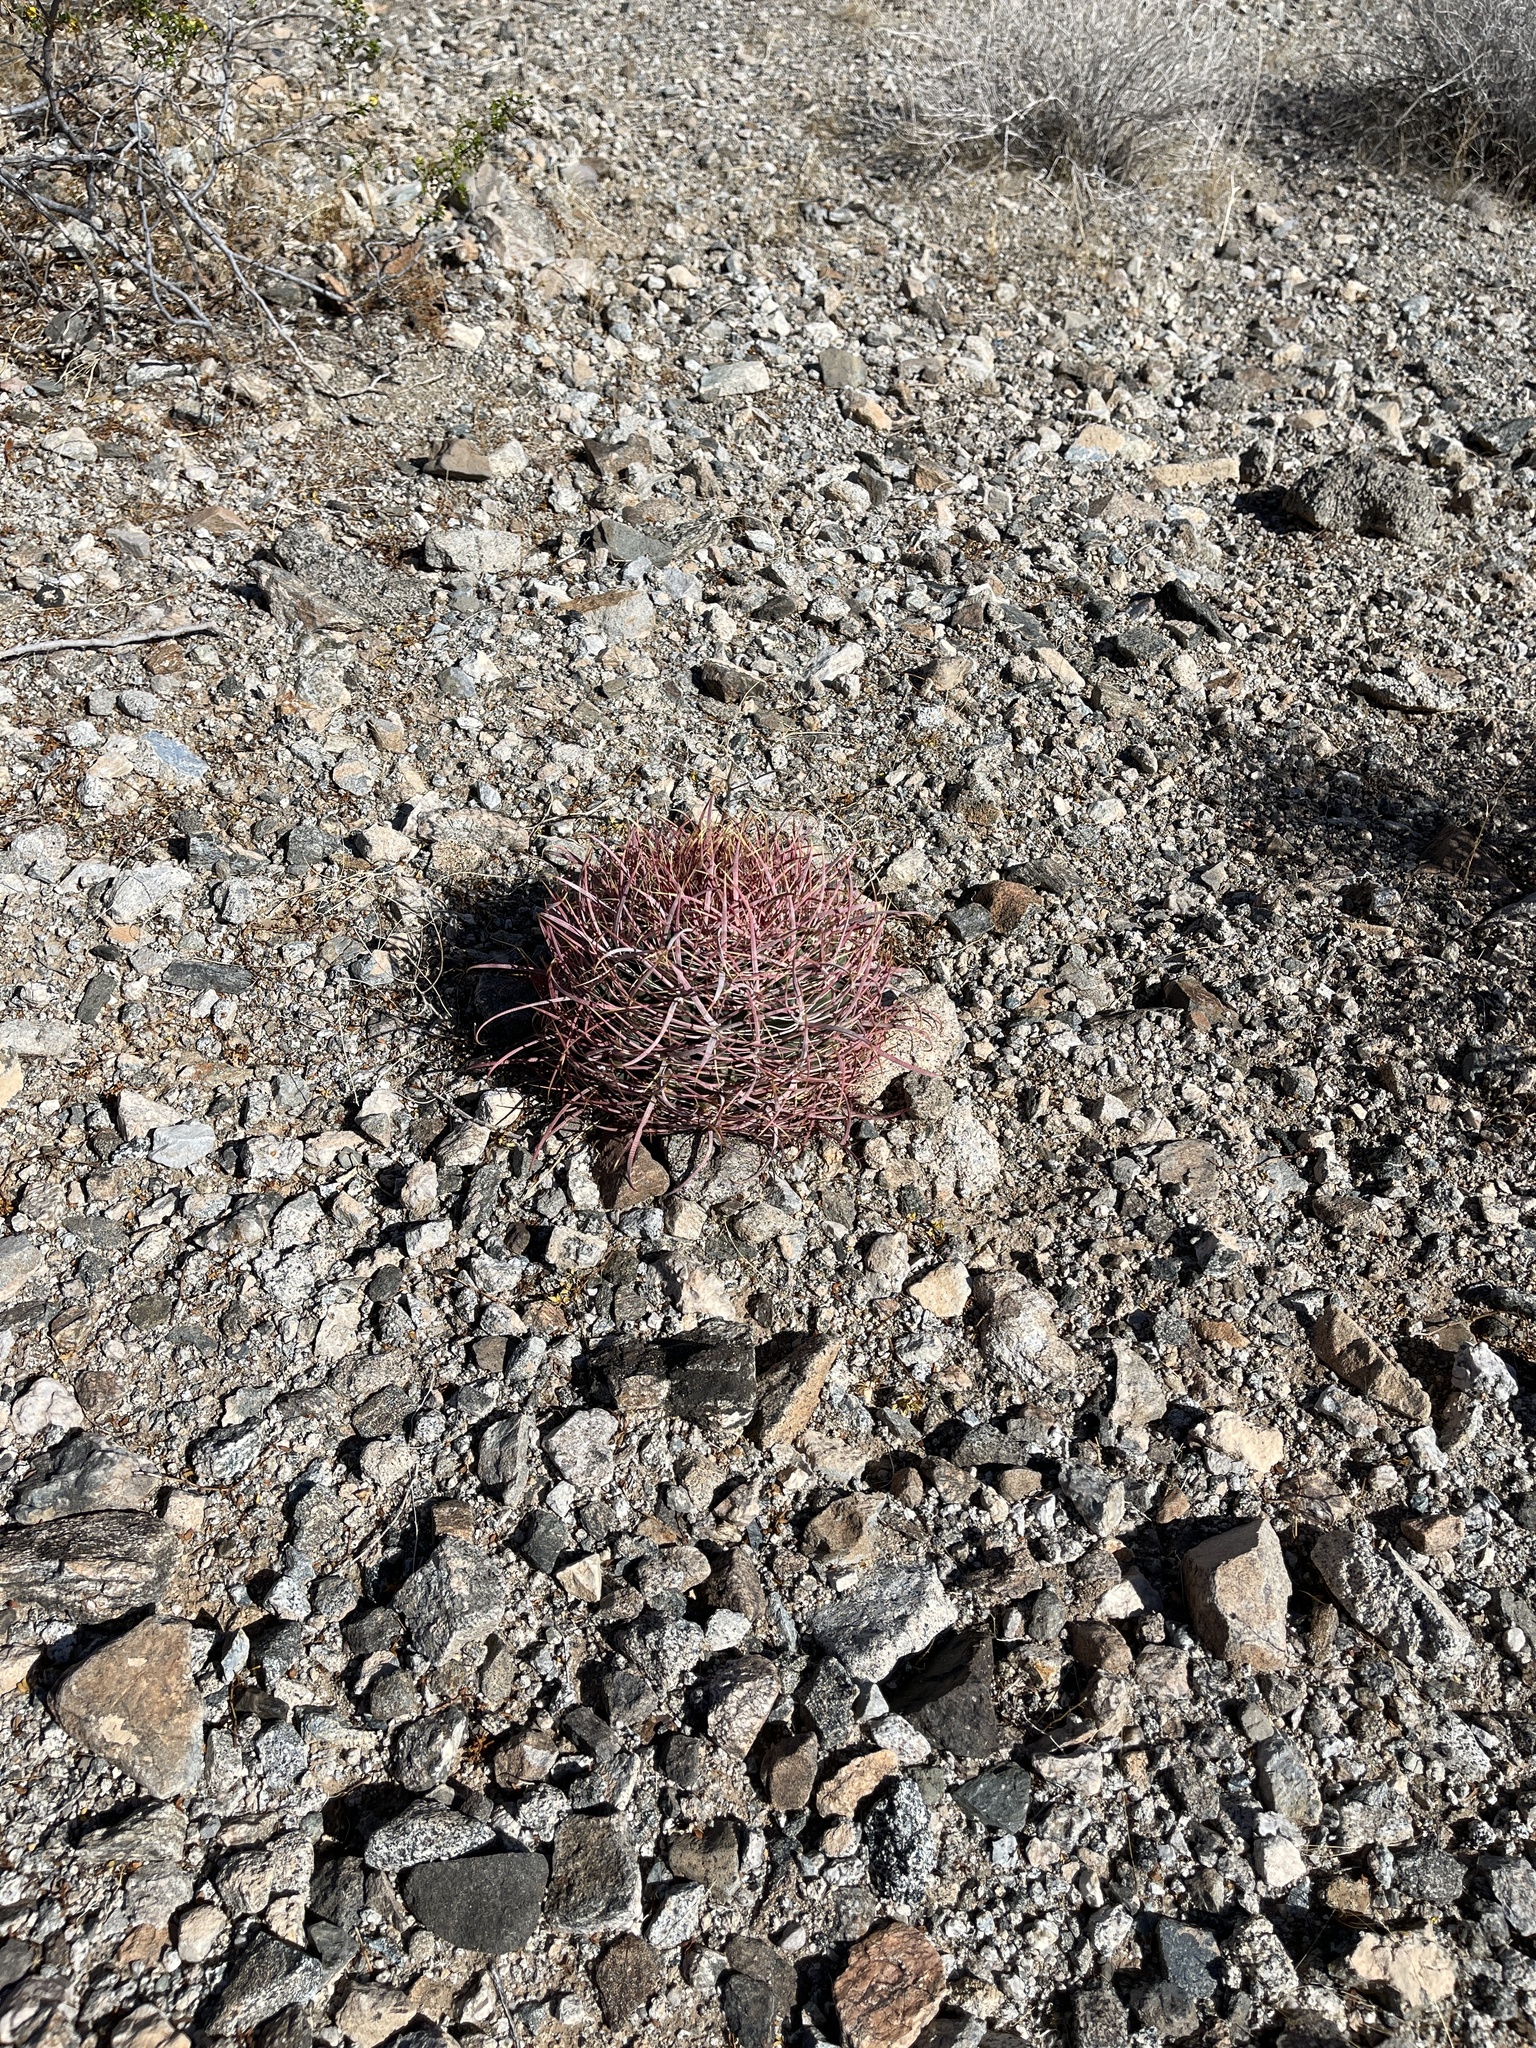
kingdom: Plantae
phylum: Tracheophyta
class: Magnoliopsida
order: Caryophyllales
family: Cactaceae
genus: Ferocactus
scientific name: Ferocactus cylindraceus
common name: California barrel cactus
